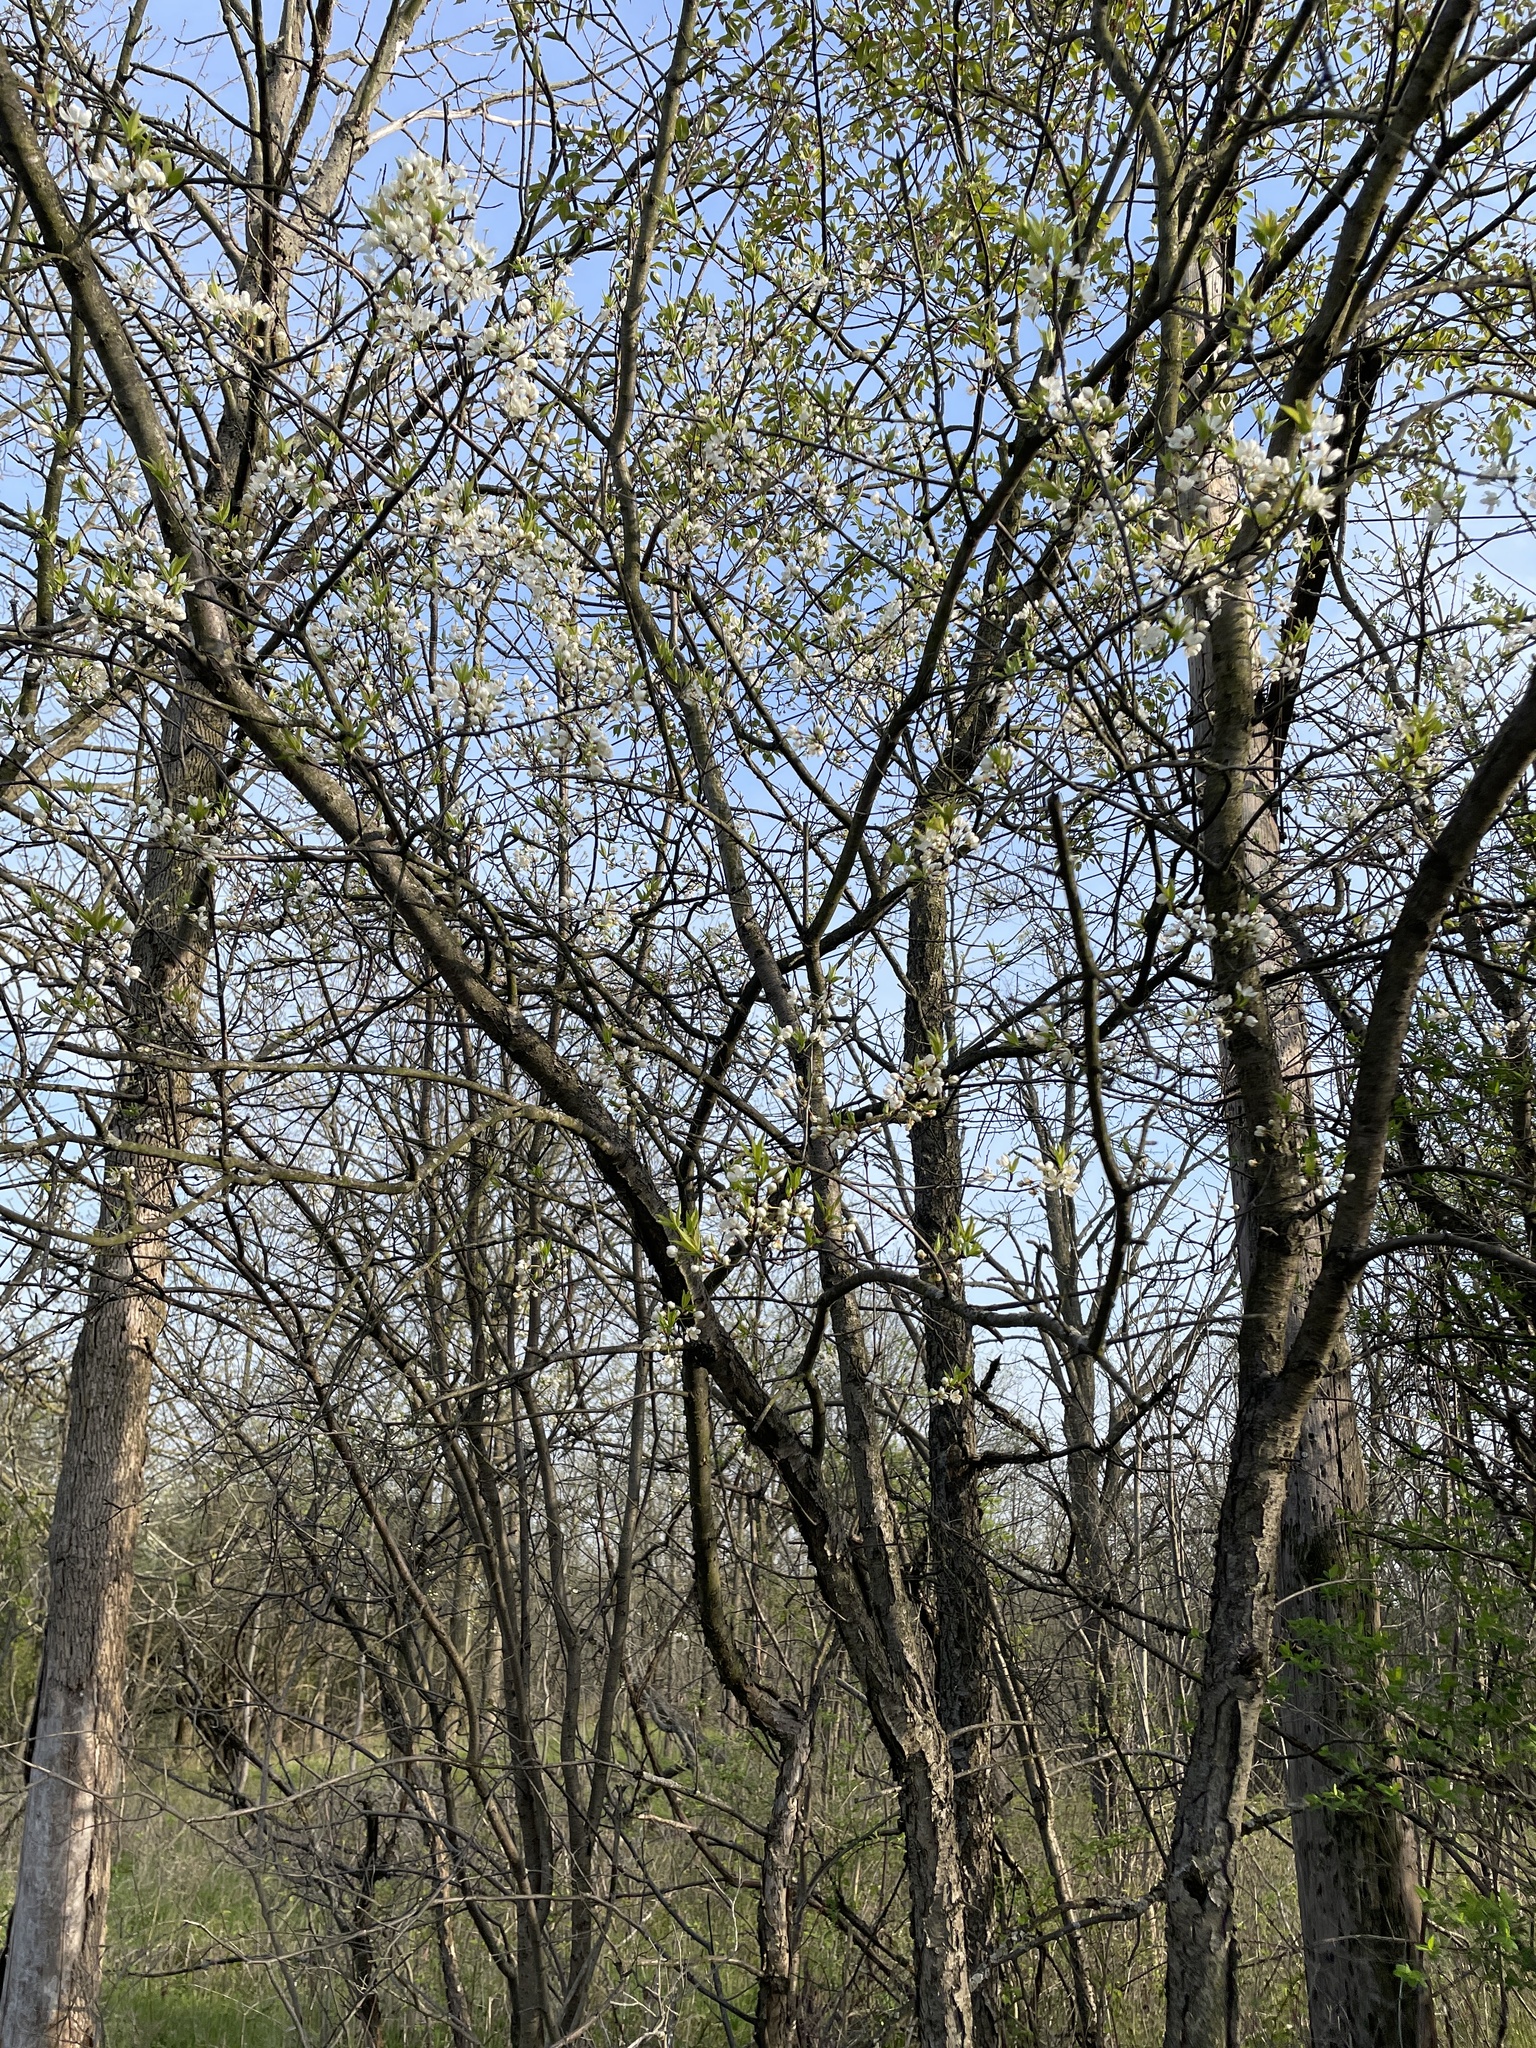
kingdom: Plantae
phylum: Tracheophyta
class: Magnoliopsida
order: Rosales
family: Rosaceae
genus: Prunus
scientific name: Prunus americana
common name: American plum
